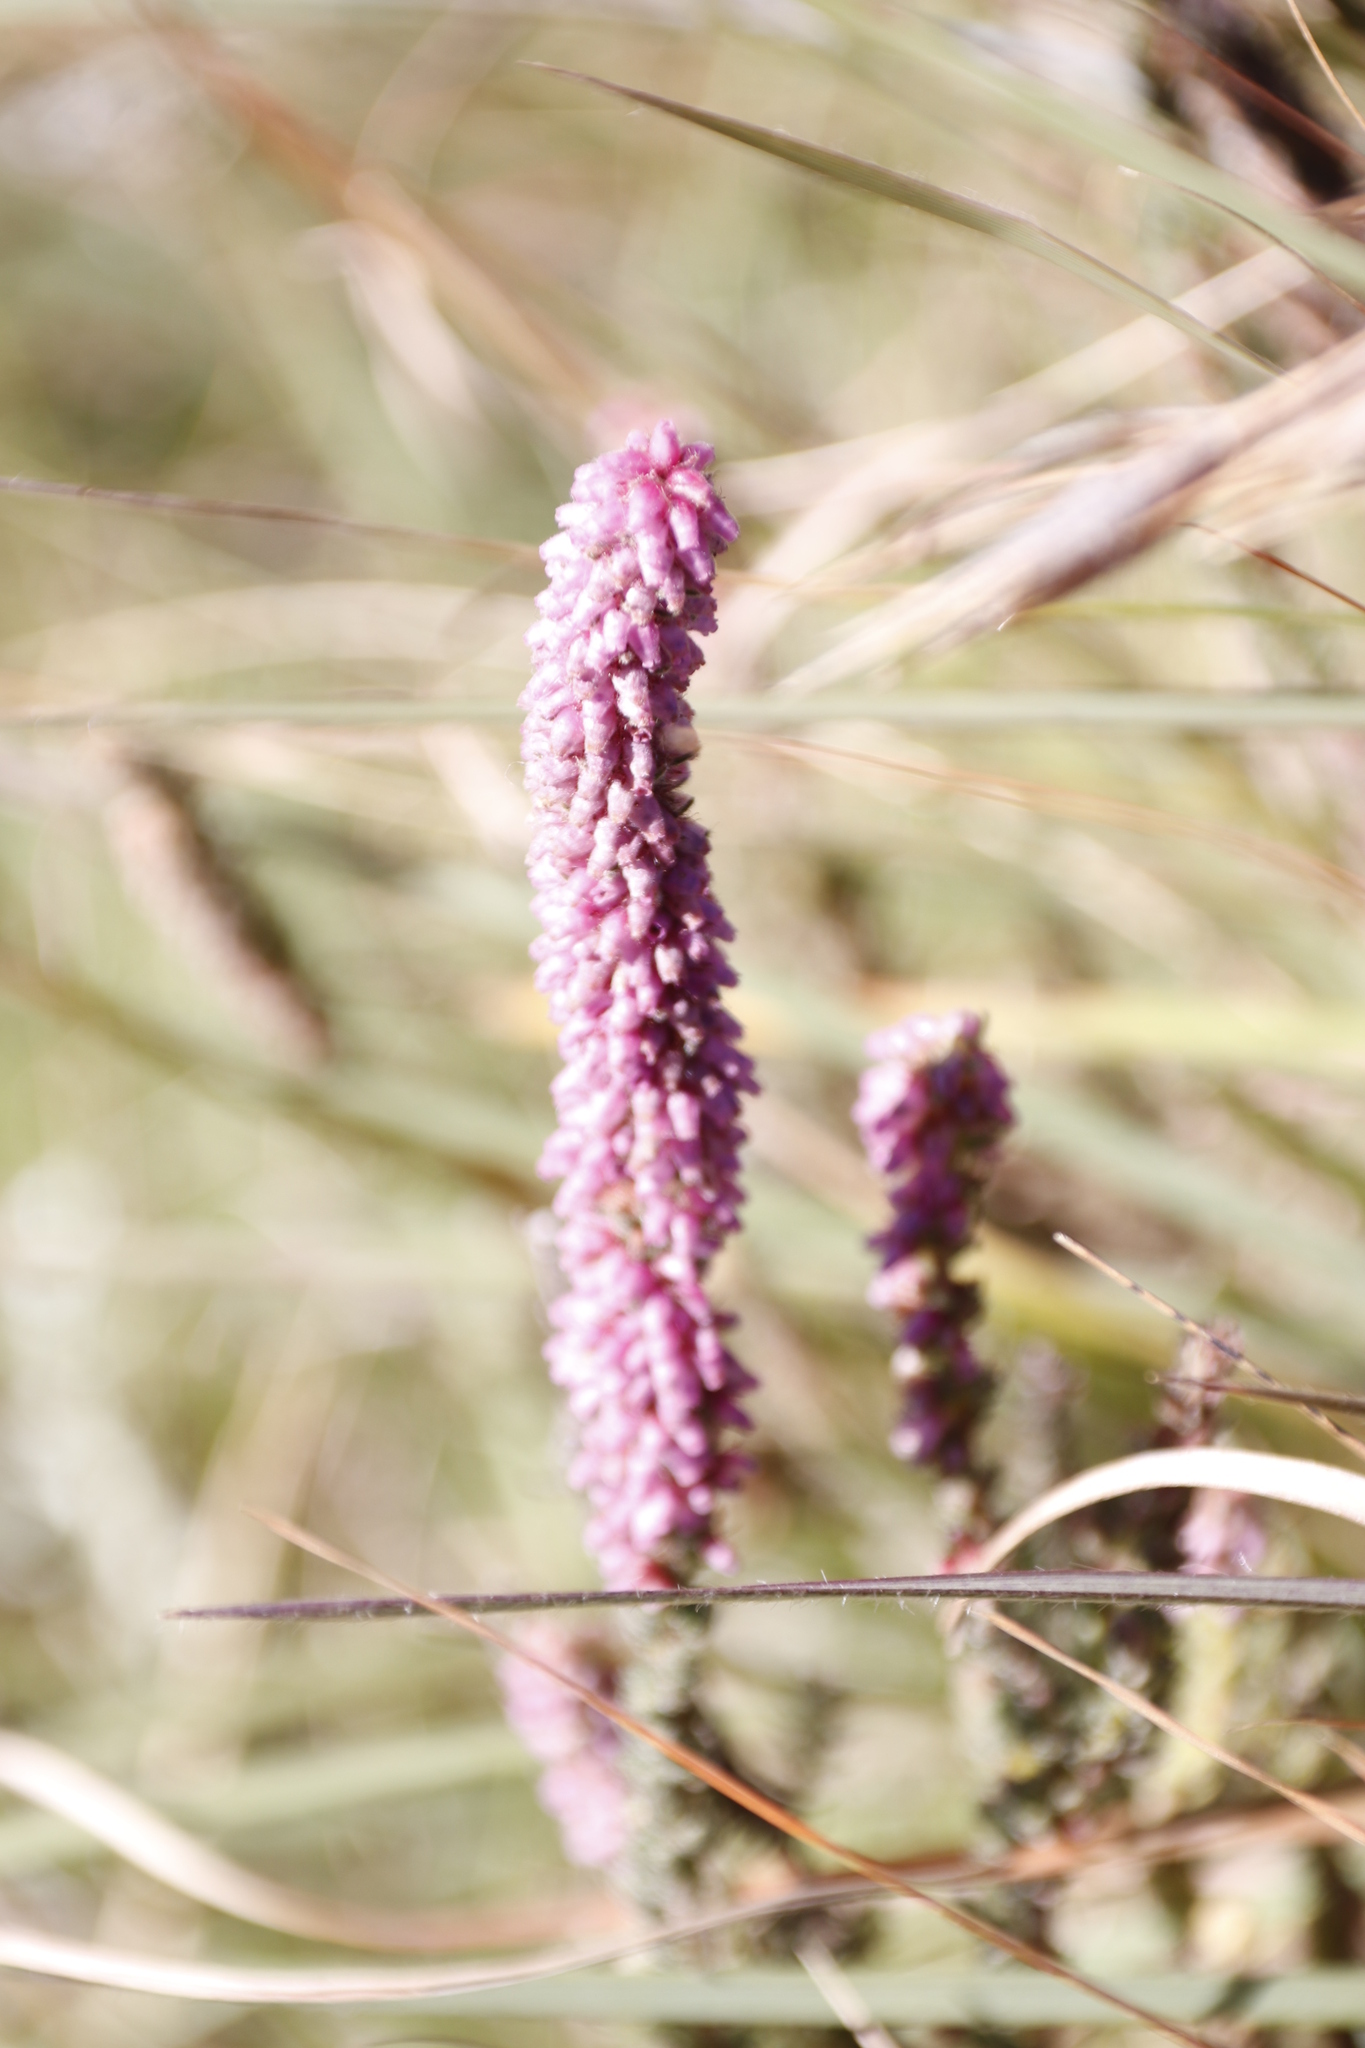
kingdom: Plantae
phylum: Tracheophyta
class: Magnoliopsida
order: Ericales
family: Ericaceae
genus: Erica
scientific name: Erica alopecurus
